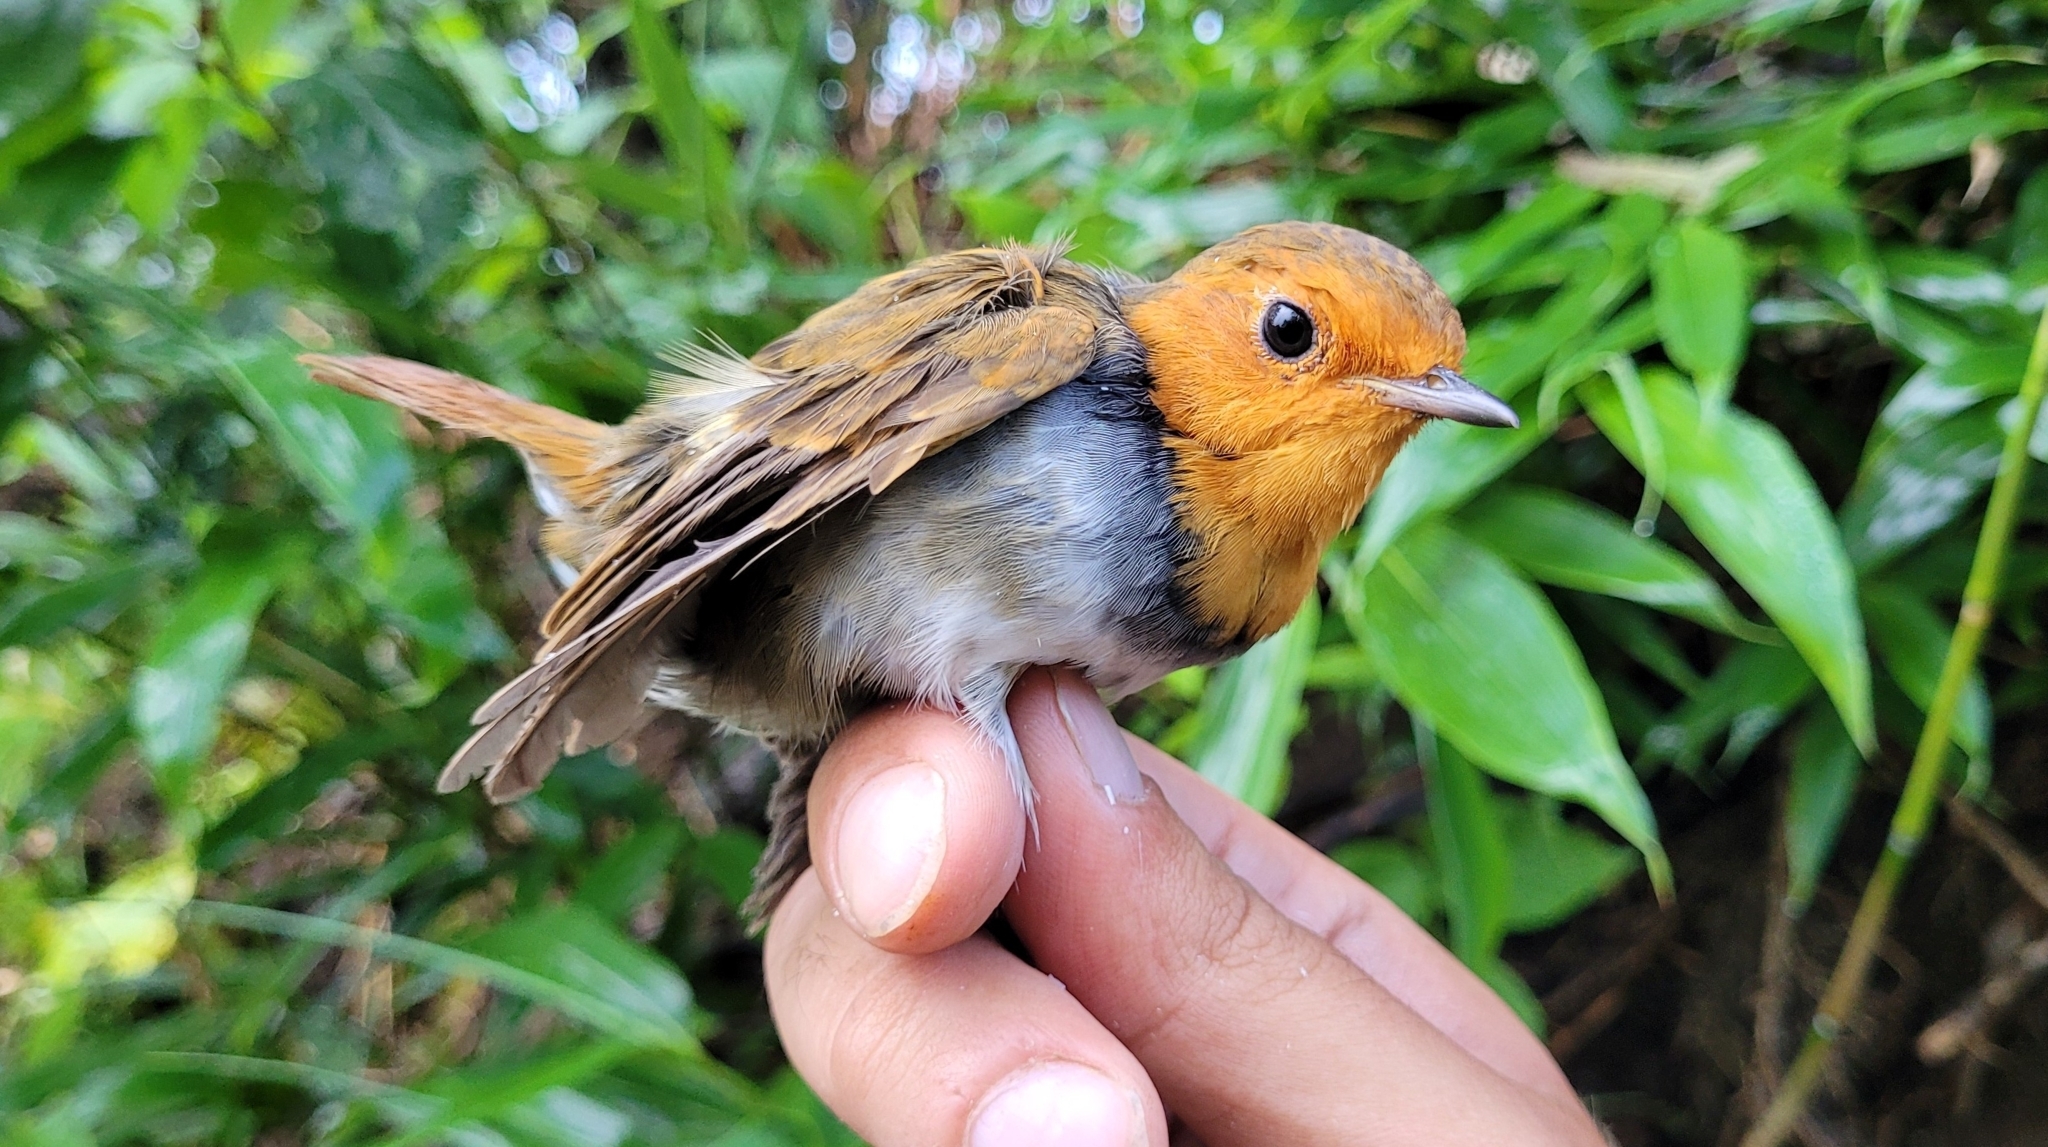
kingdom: Animalia
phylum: Chordata
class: Aves
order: Passeriformes
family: Muscicapidae
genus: Erithacus
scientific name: Erithacus akahige
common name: Japanese robin
